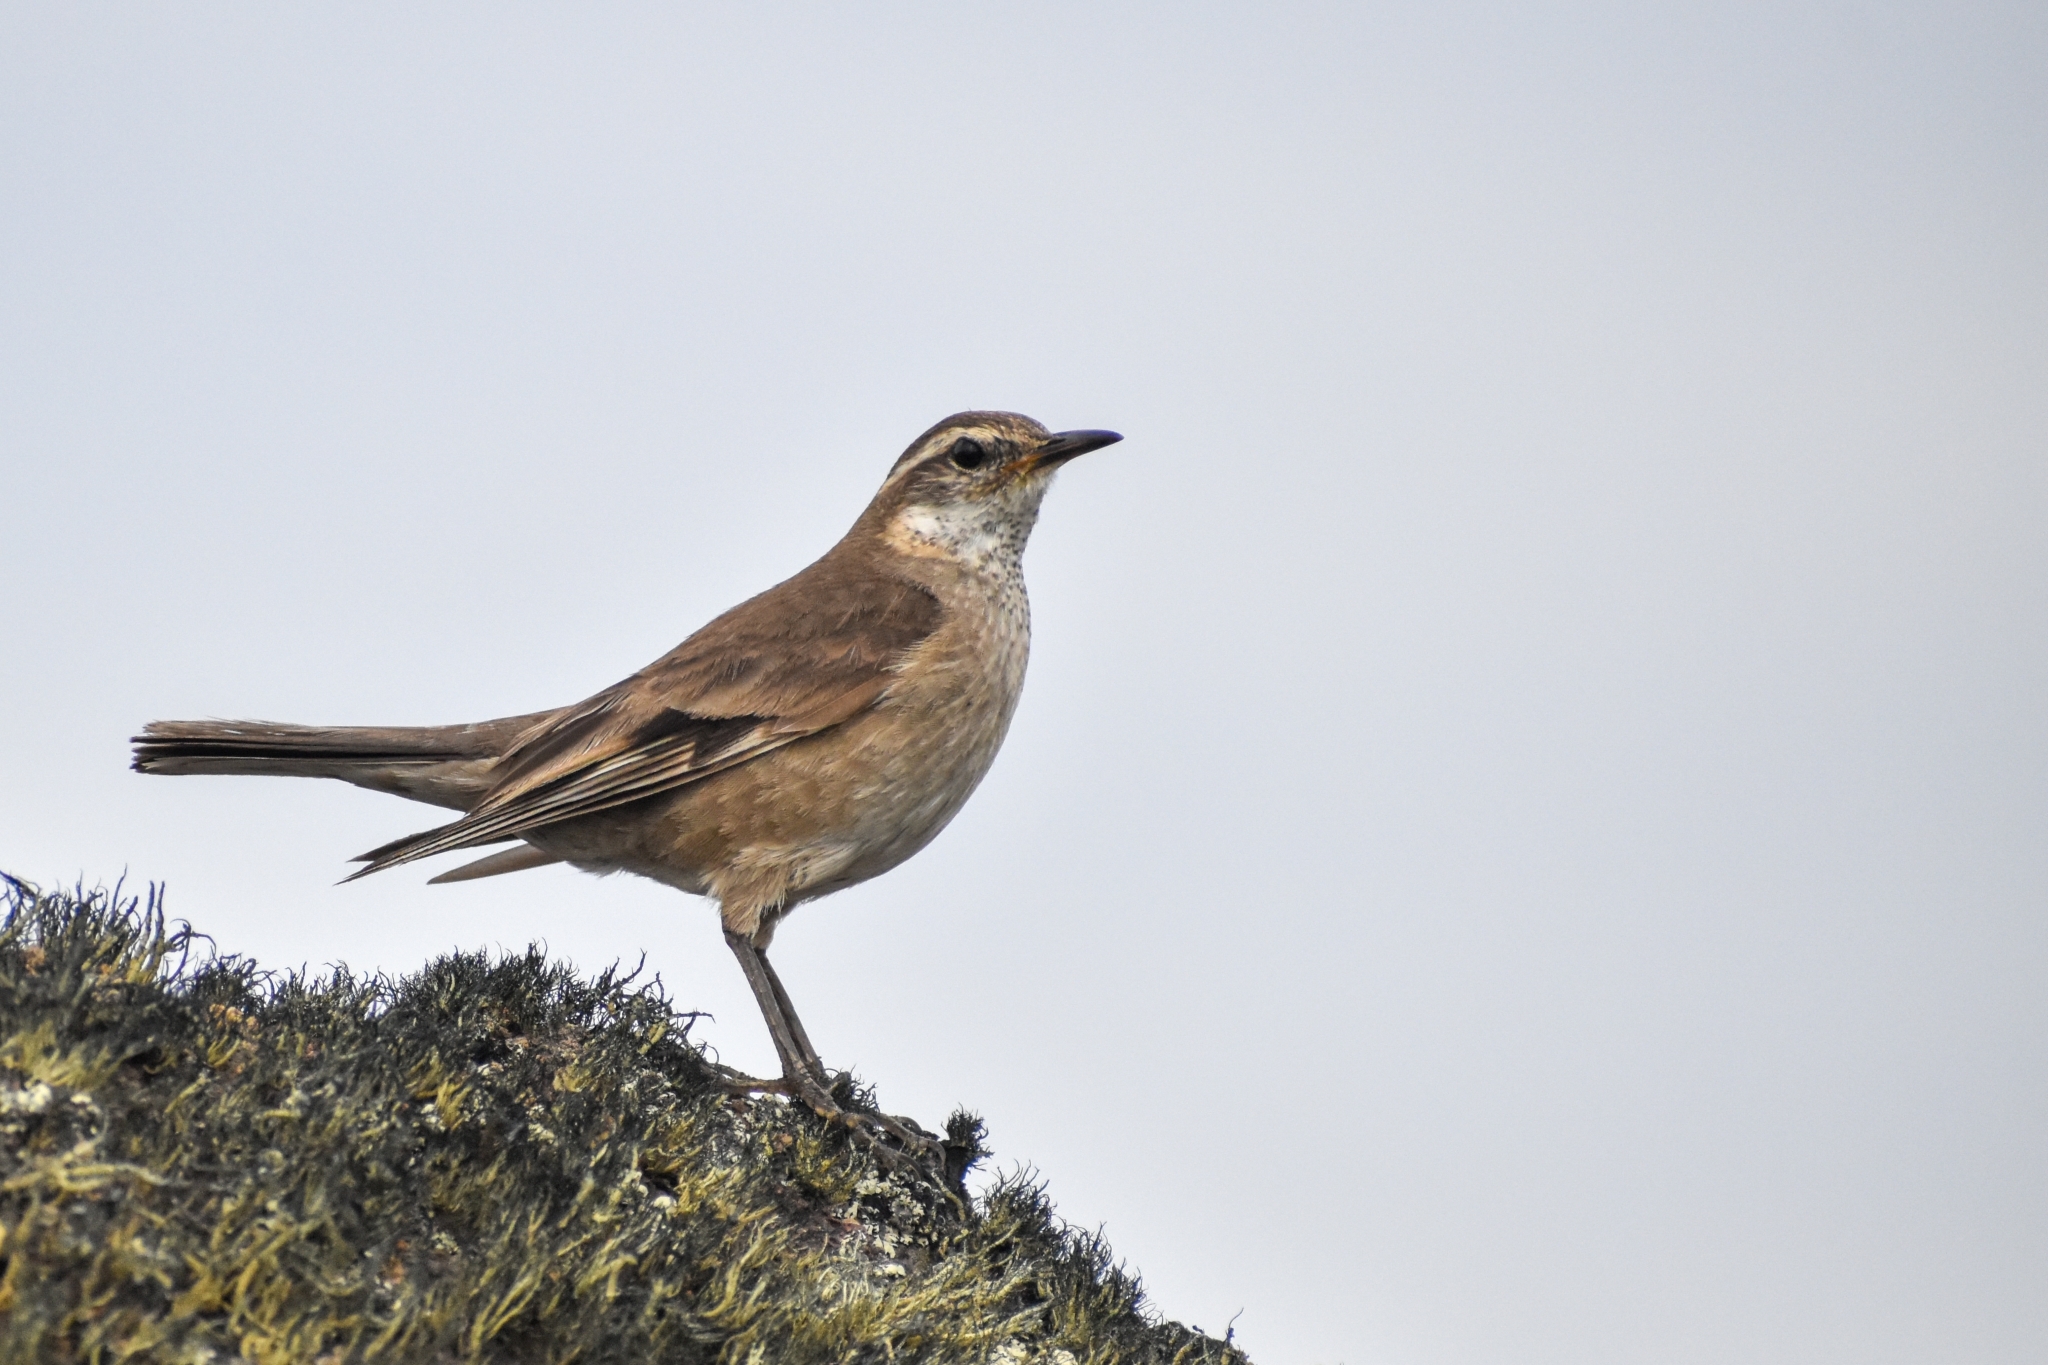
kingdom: Animalia
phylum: Chordata
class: Aves
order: Passeriformes
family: Furnariidae
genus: Cinclodes
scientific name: Cinclodes fuscus
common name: Buff-winged cinclodes
